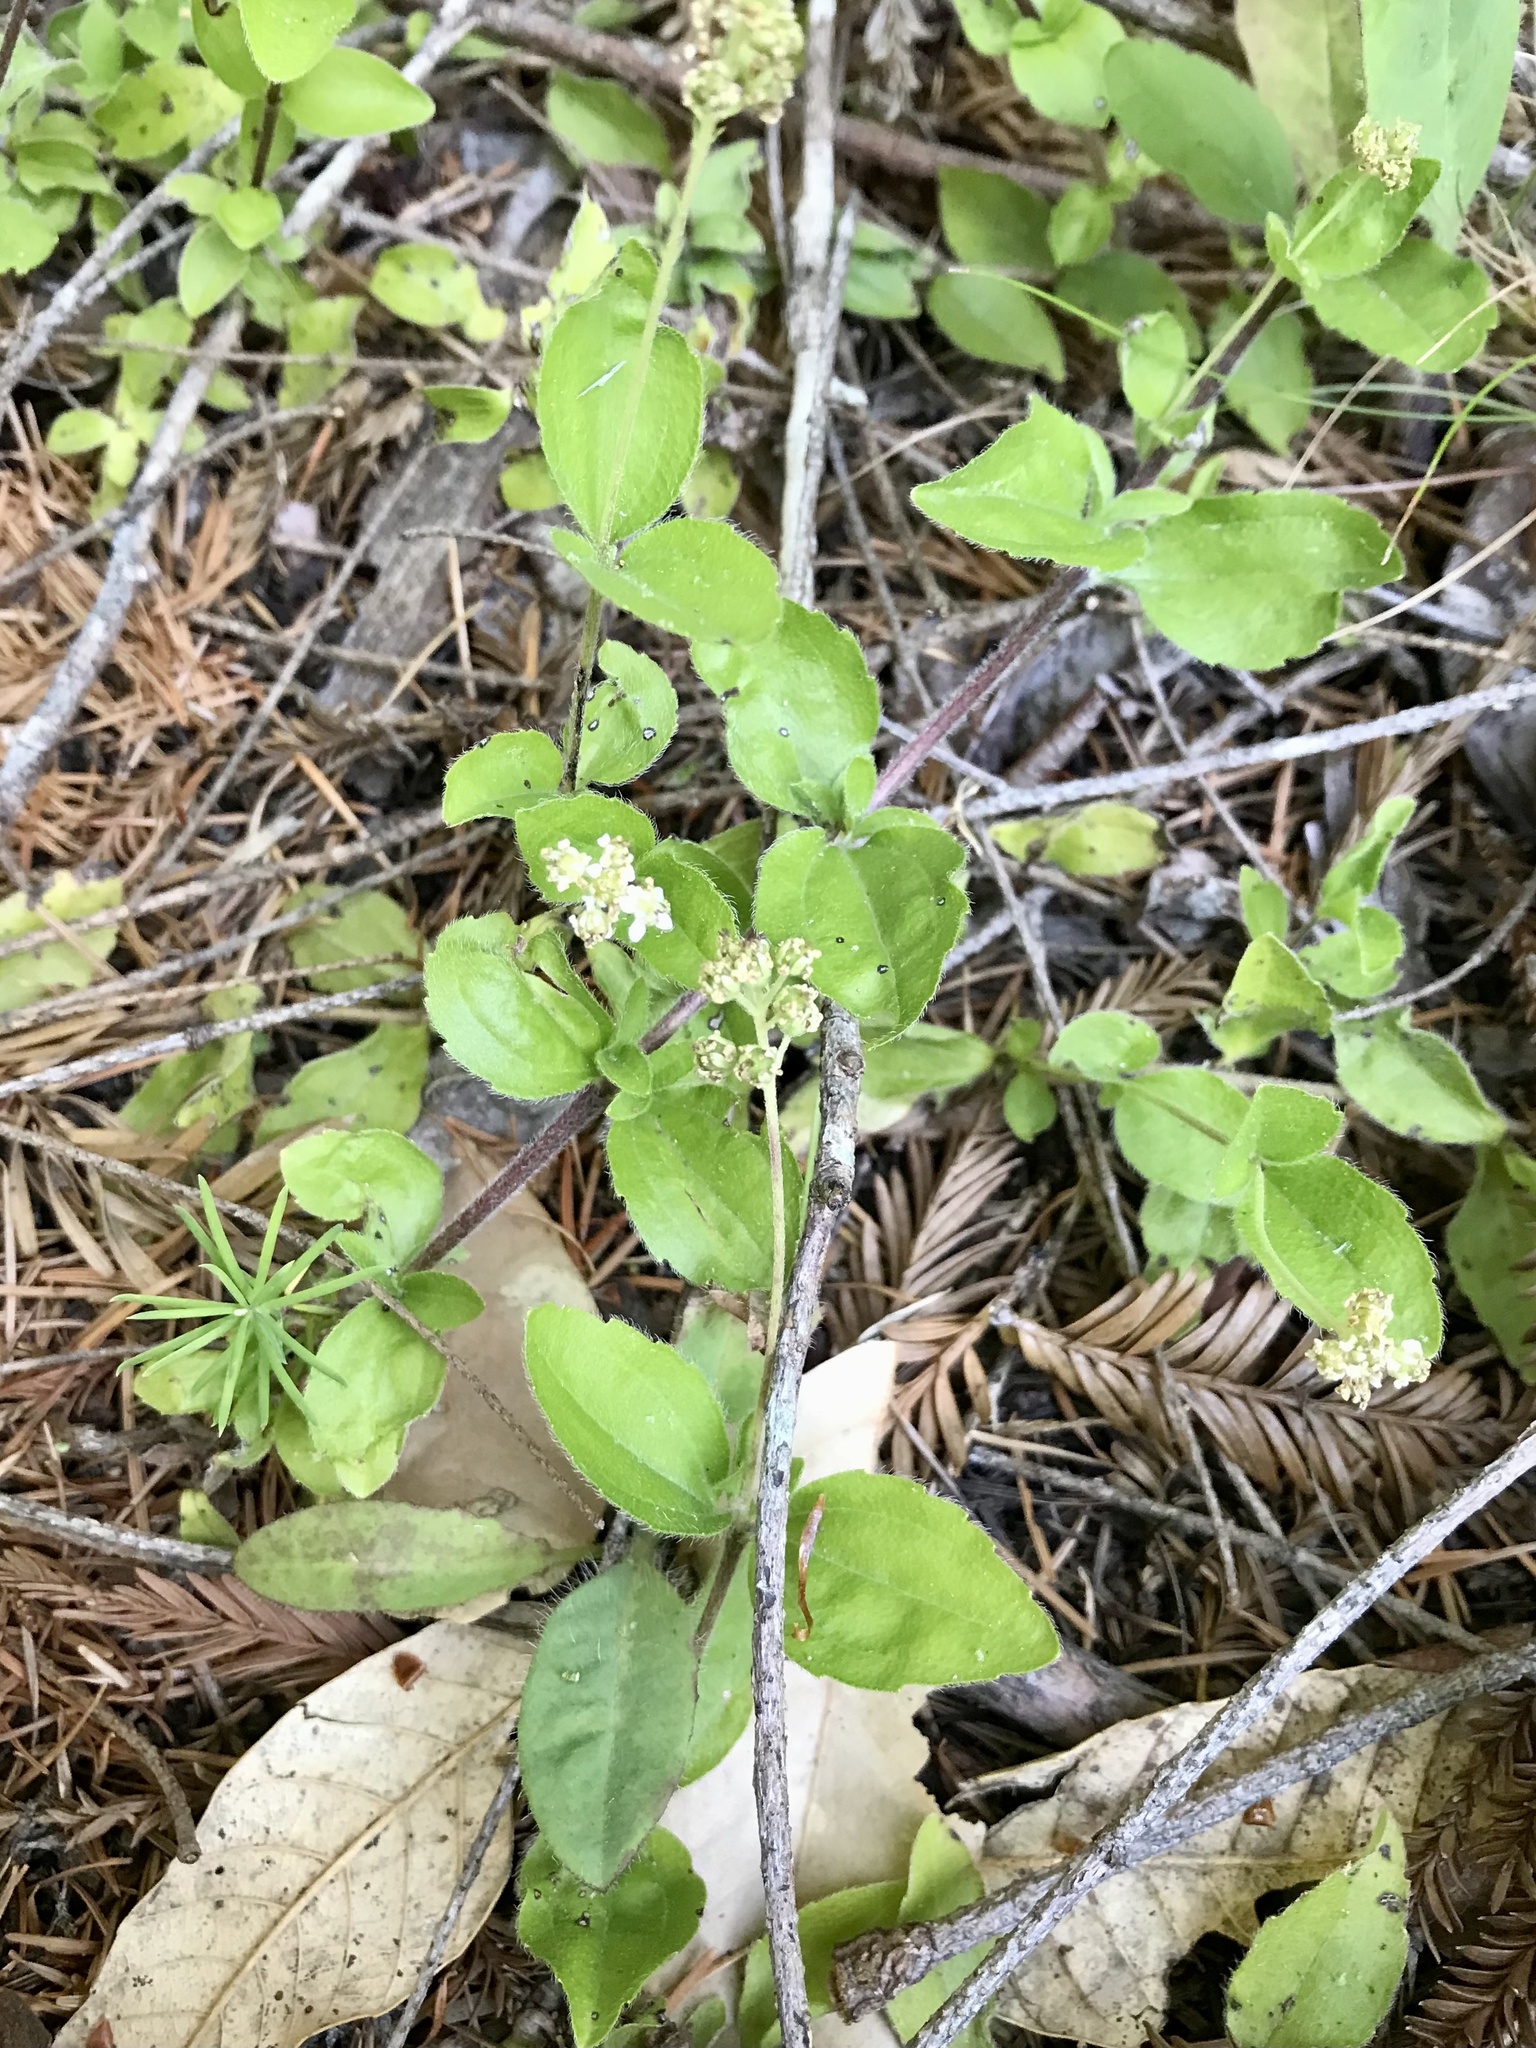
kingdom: Plantae
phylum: Tracheophyta
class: Magnoliopsida
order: Cornales
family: Hydrangeaceae
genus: Whipplea
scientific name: Whipplea modesta
